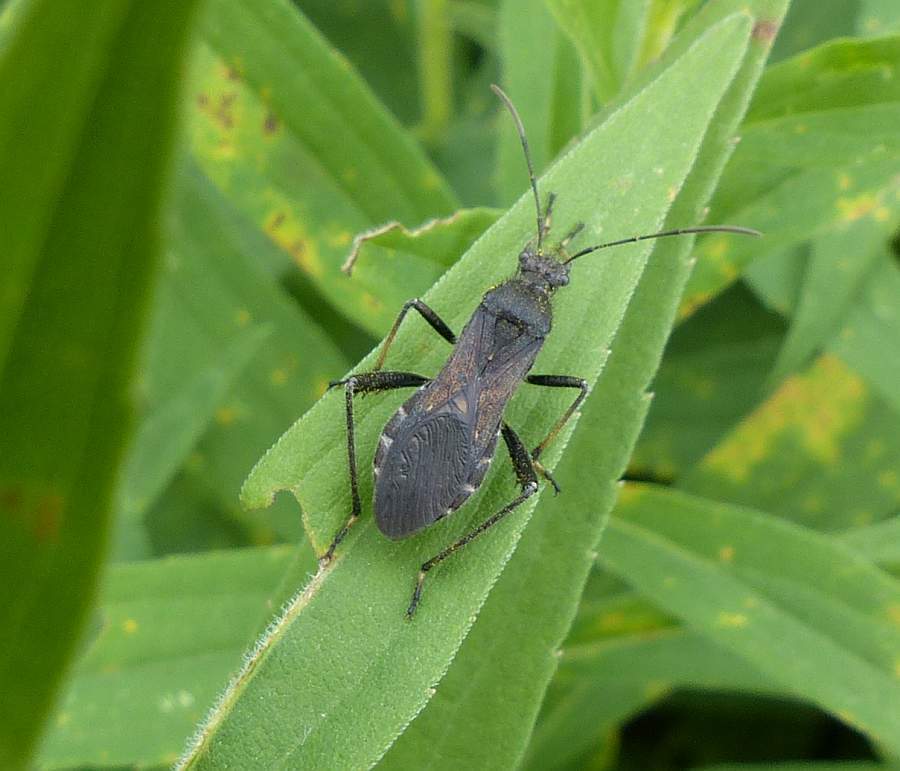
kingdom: Animalia
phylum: Arthropoda
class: Insecta
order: Hemiptera
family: Alydidae
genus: Alydus
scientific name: Alydus eurinus
